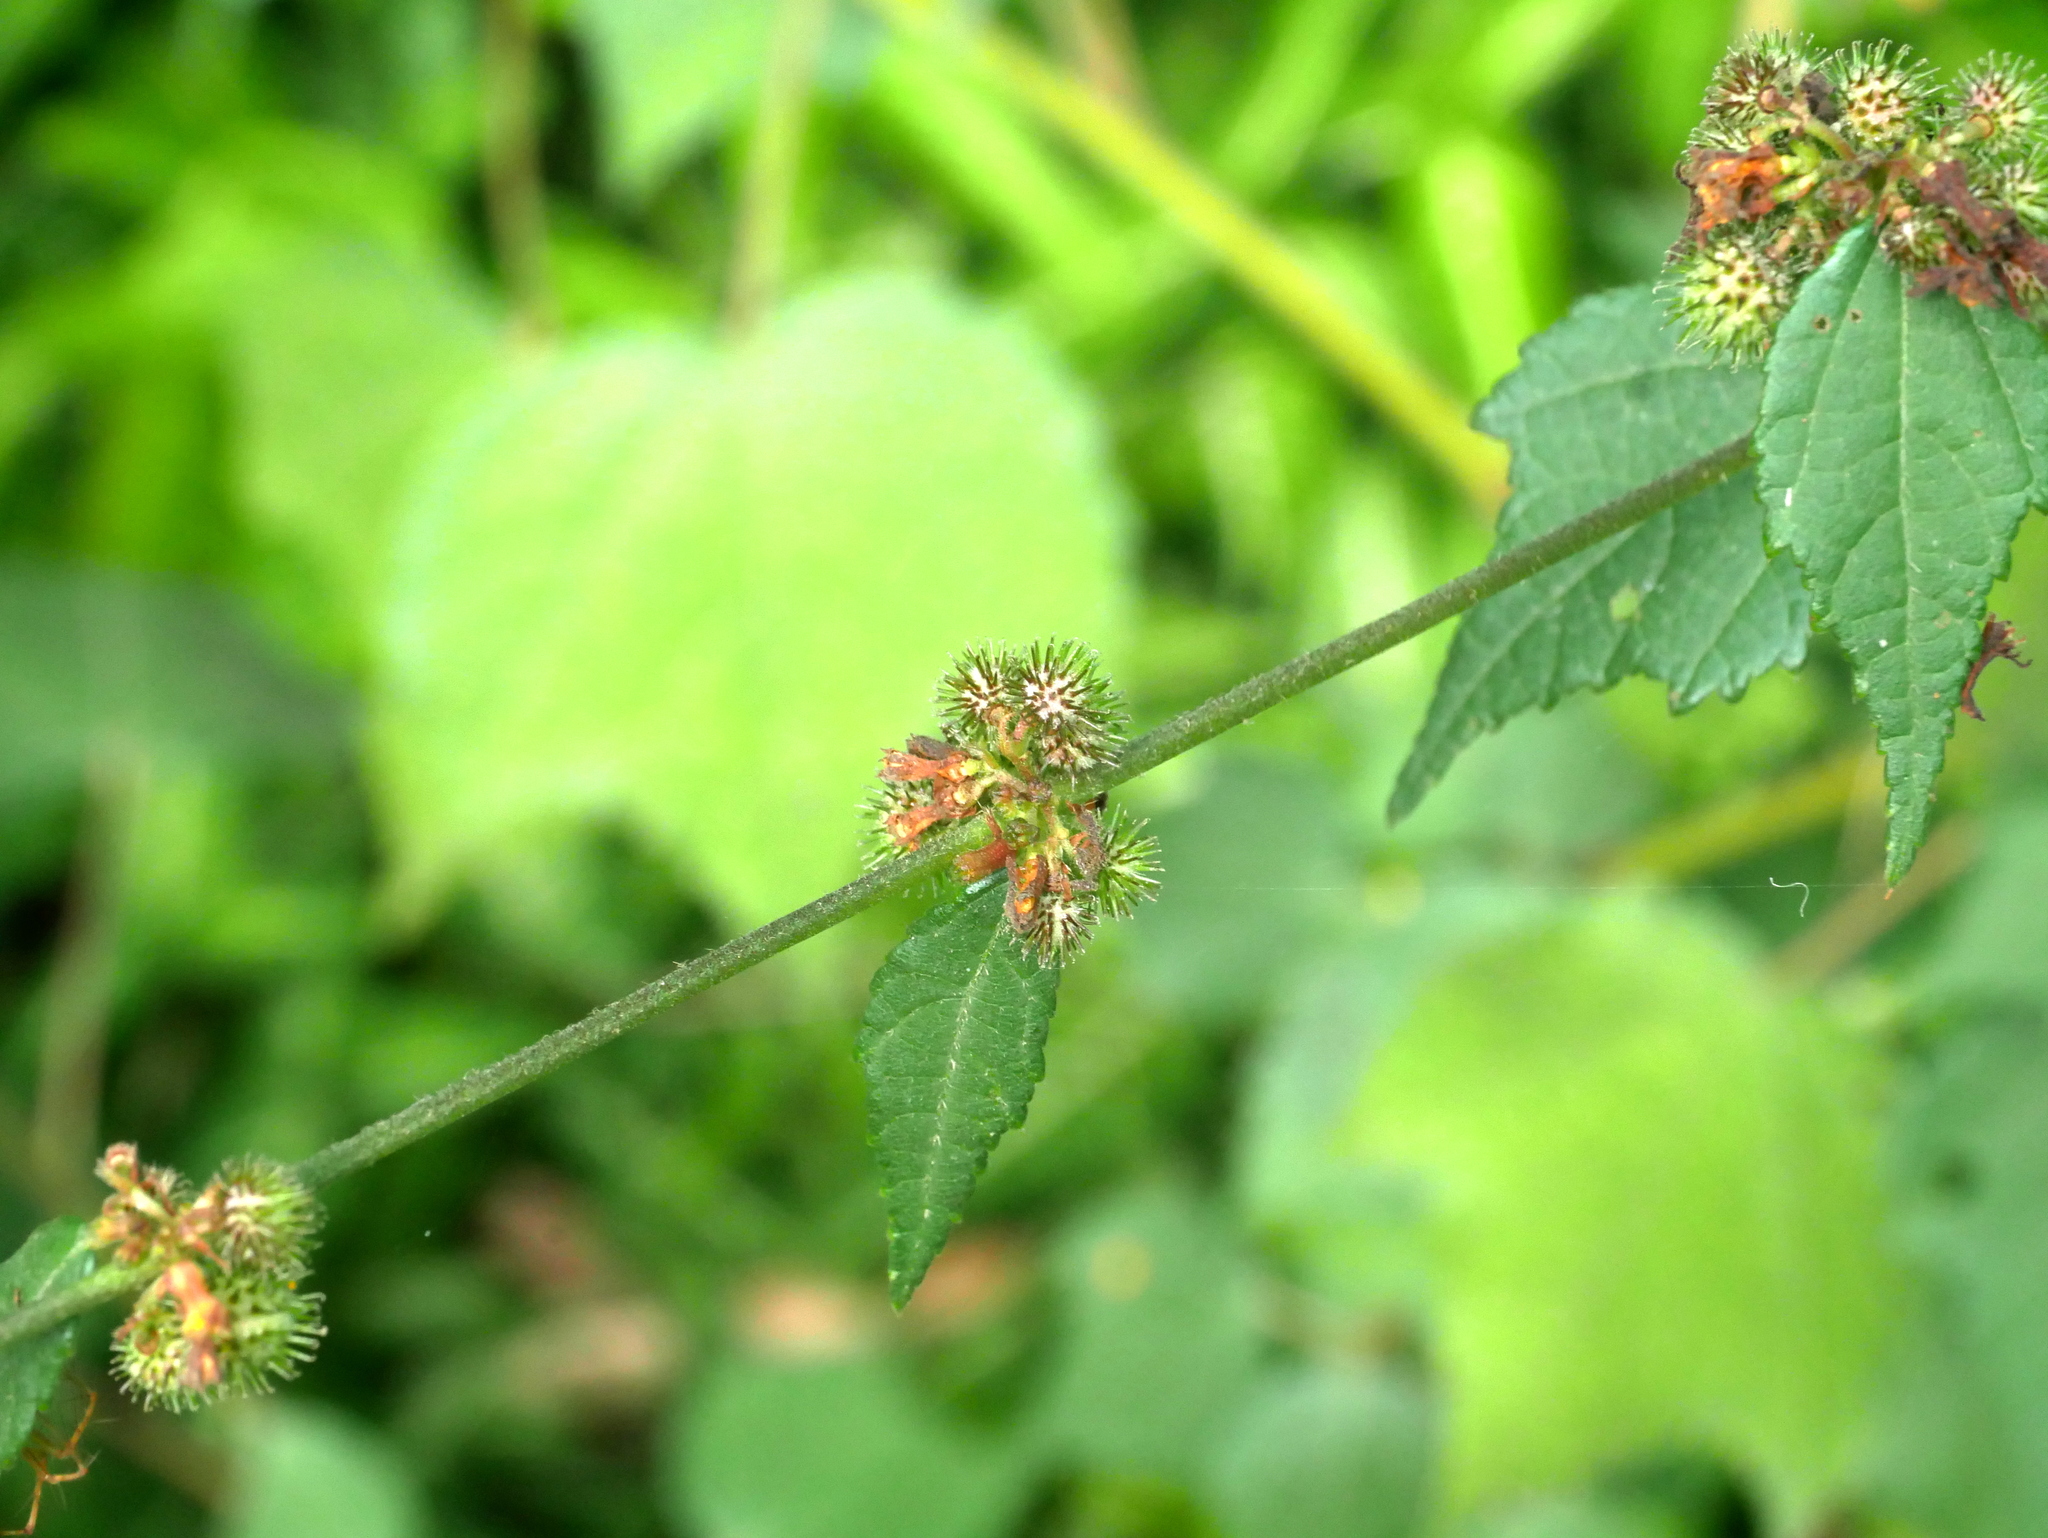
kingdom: Plantae
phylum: Tracheophyta
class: Magnoliopsida
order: Malvales
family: Malvaceae
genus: Triumfetta
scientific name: Triumfetta rhomboidea
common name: Diamond burbark
